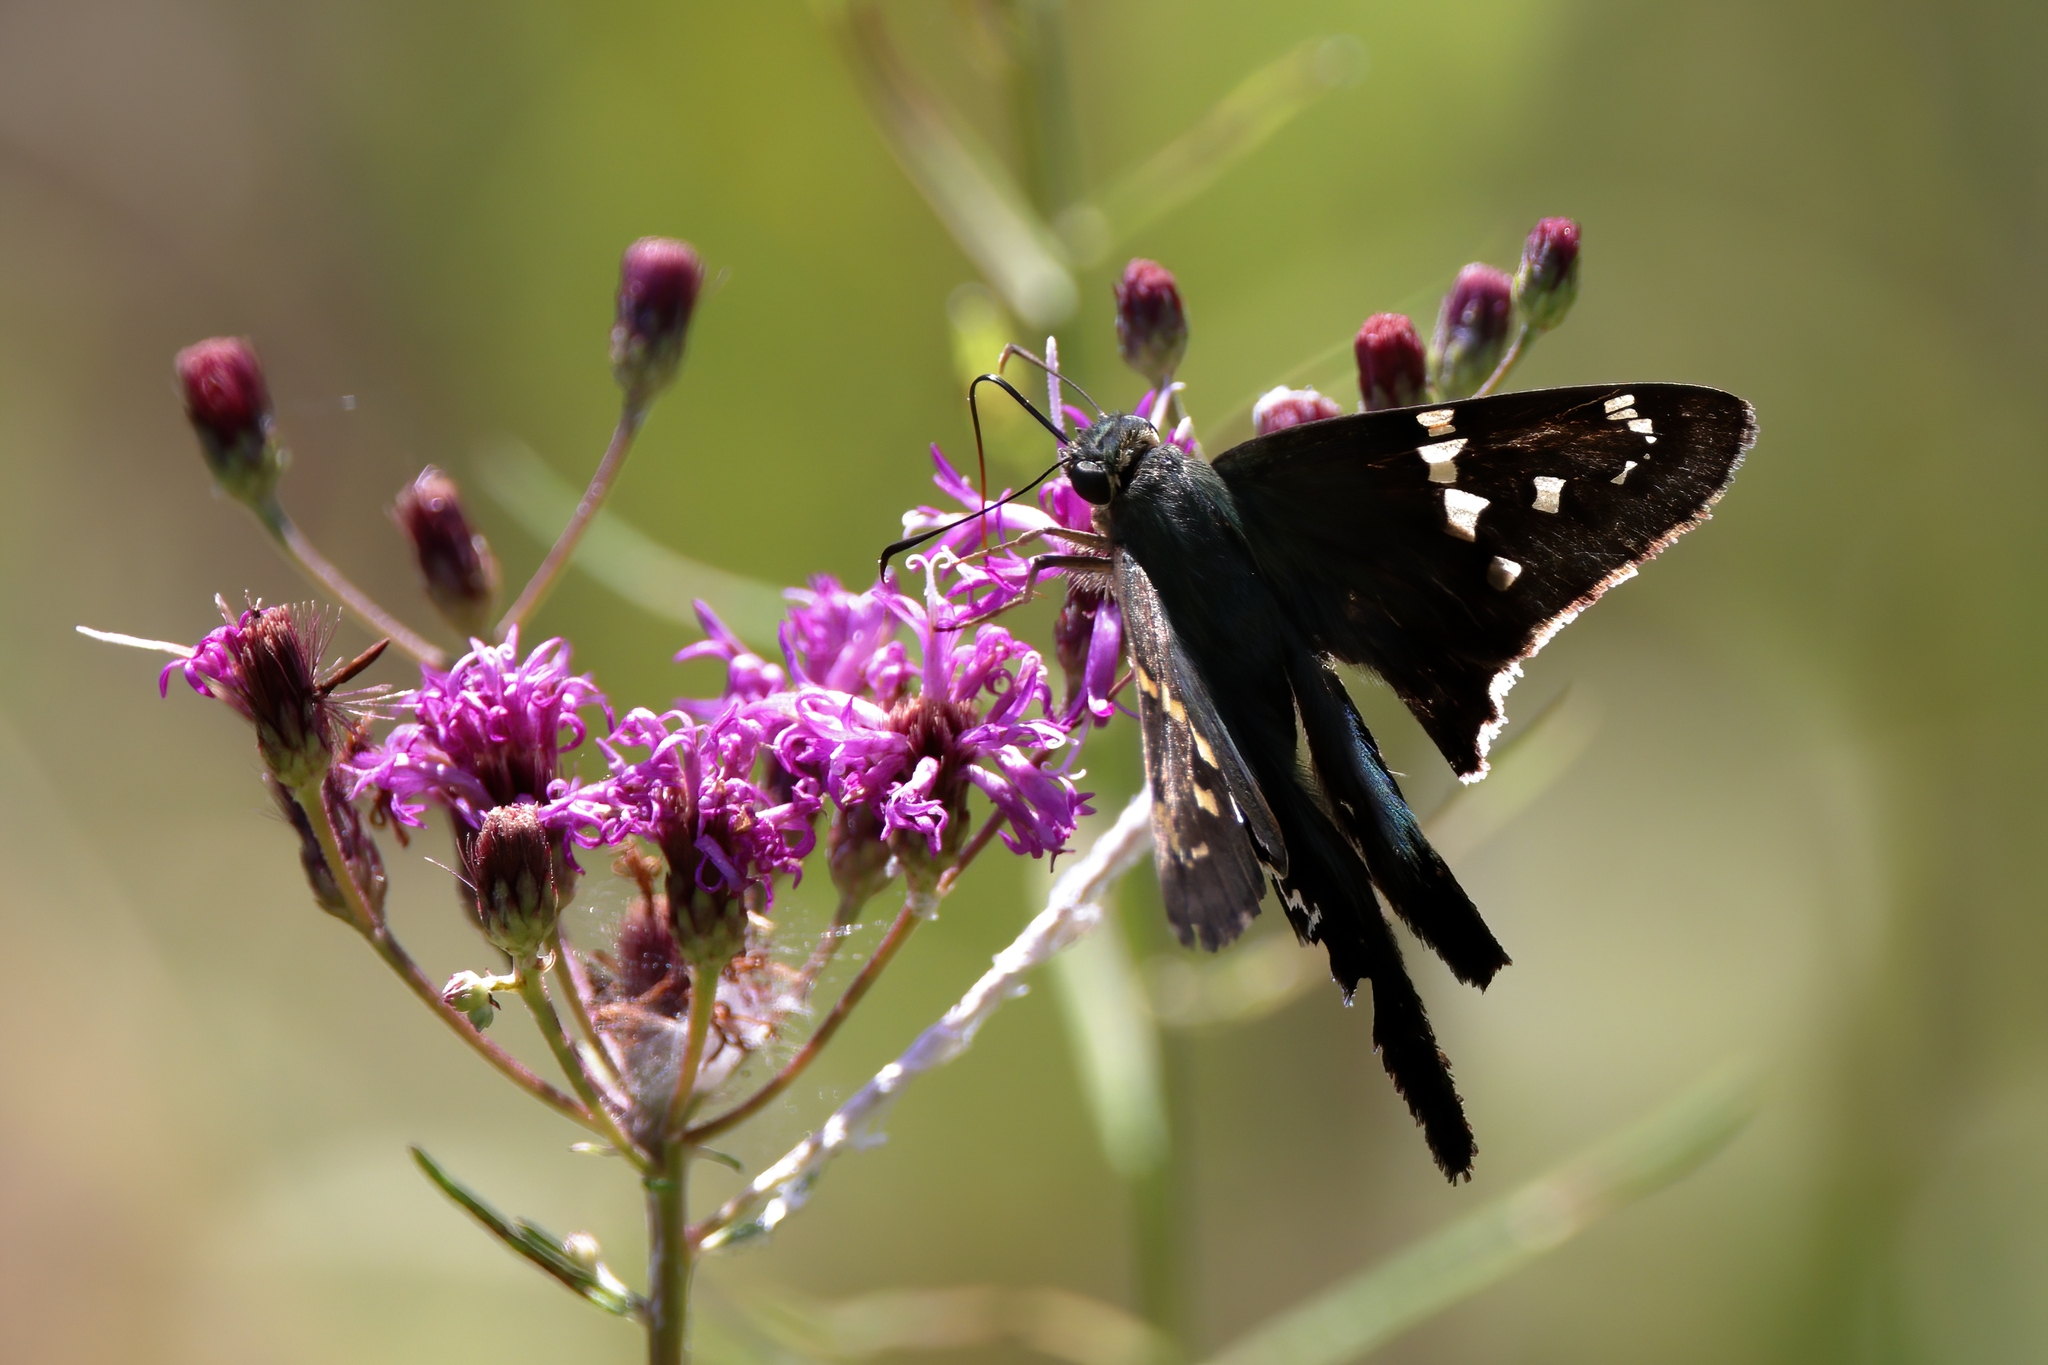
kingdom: Animalia
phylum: Arthropoda
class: Insecta
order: Lepidoptera
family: Hesperiidae
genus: Urbanus
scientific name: Urbanus proteus
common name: Long-tailed skipper
